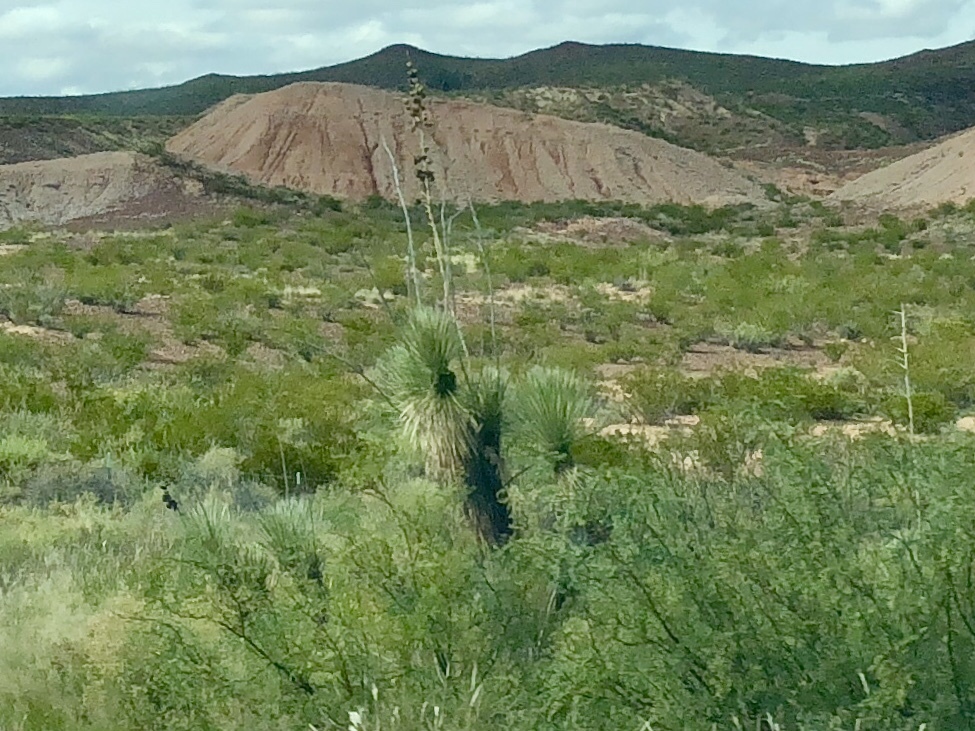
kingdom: Plantae
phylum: Tracheophyta
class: Liliopsida
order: Asparagales
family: Asparagaceae
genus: Yucca
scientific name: Yucca elata
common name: Palmella
